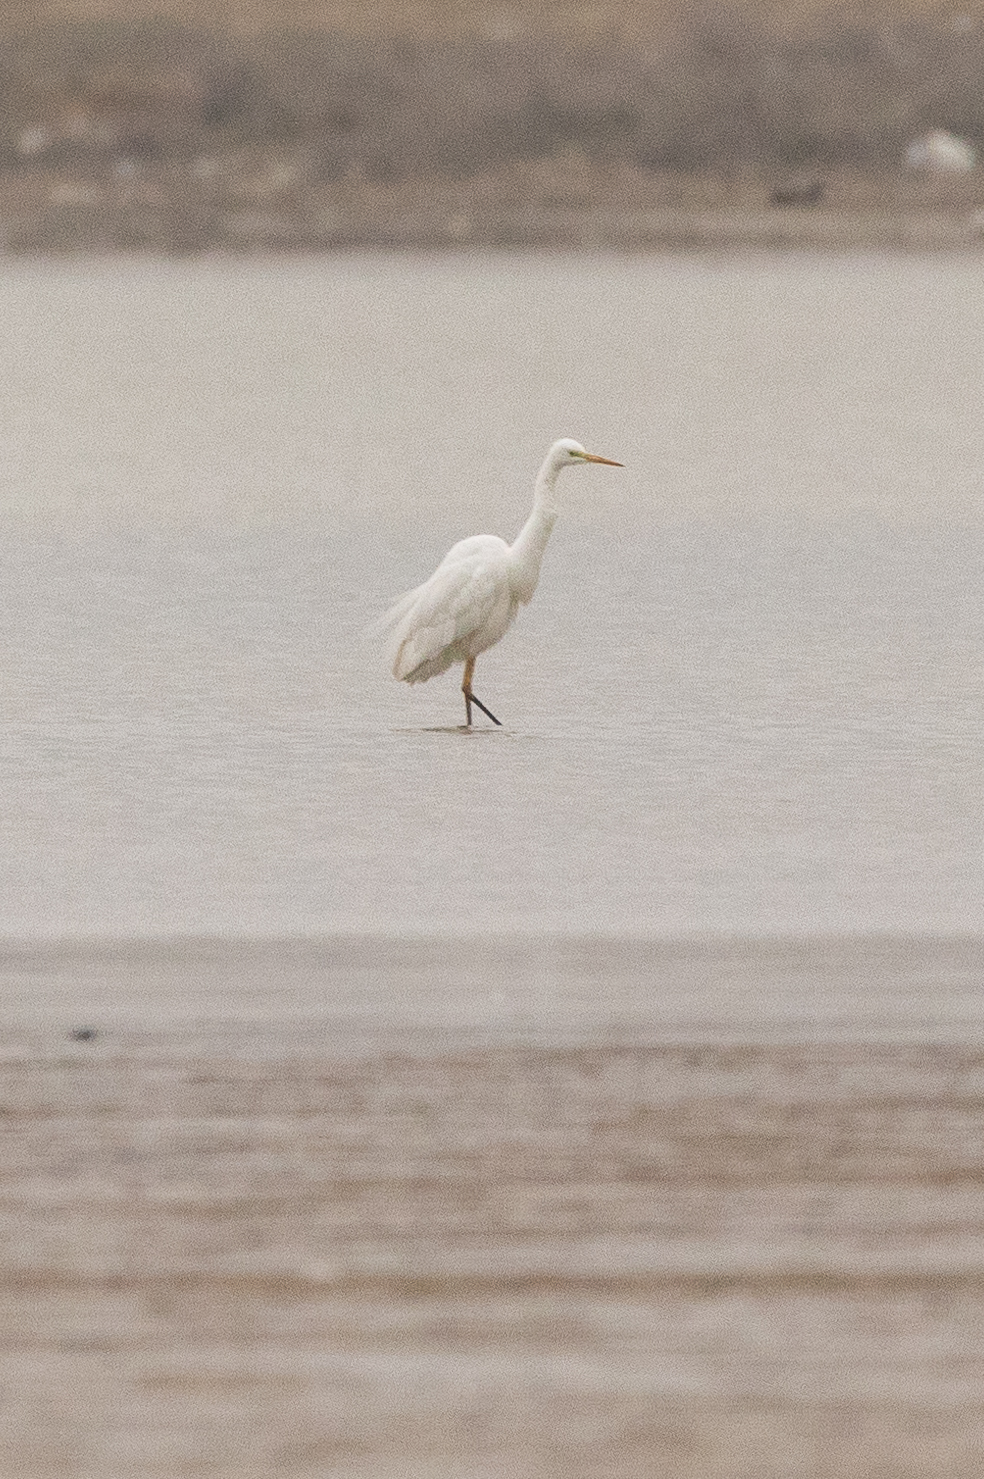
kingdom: Animalia
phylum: Chordata
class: Aves
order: Pelecaniformes
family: Ardeidae
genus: Ardea
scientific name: Ardea alba
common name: Great egret
